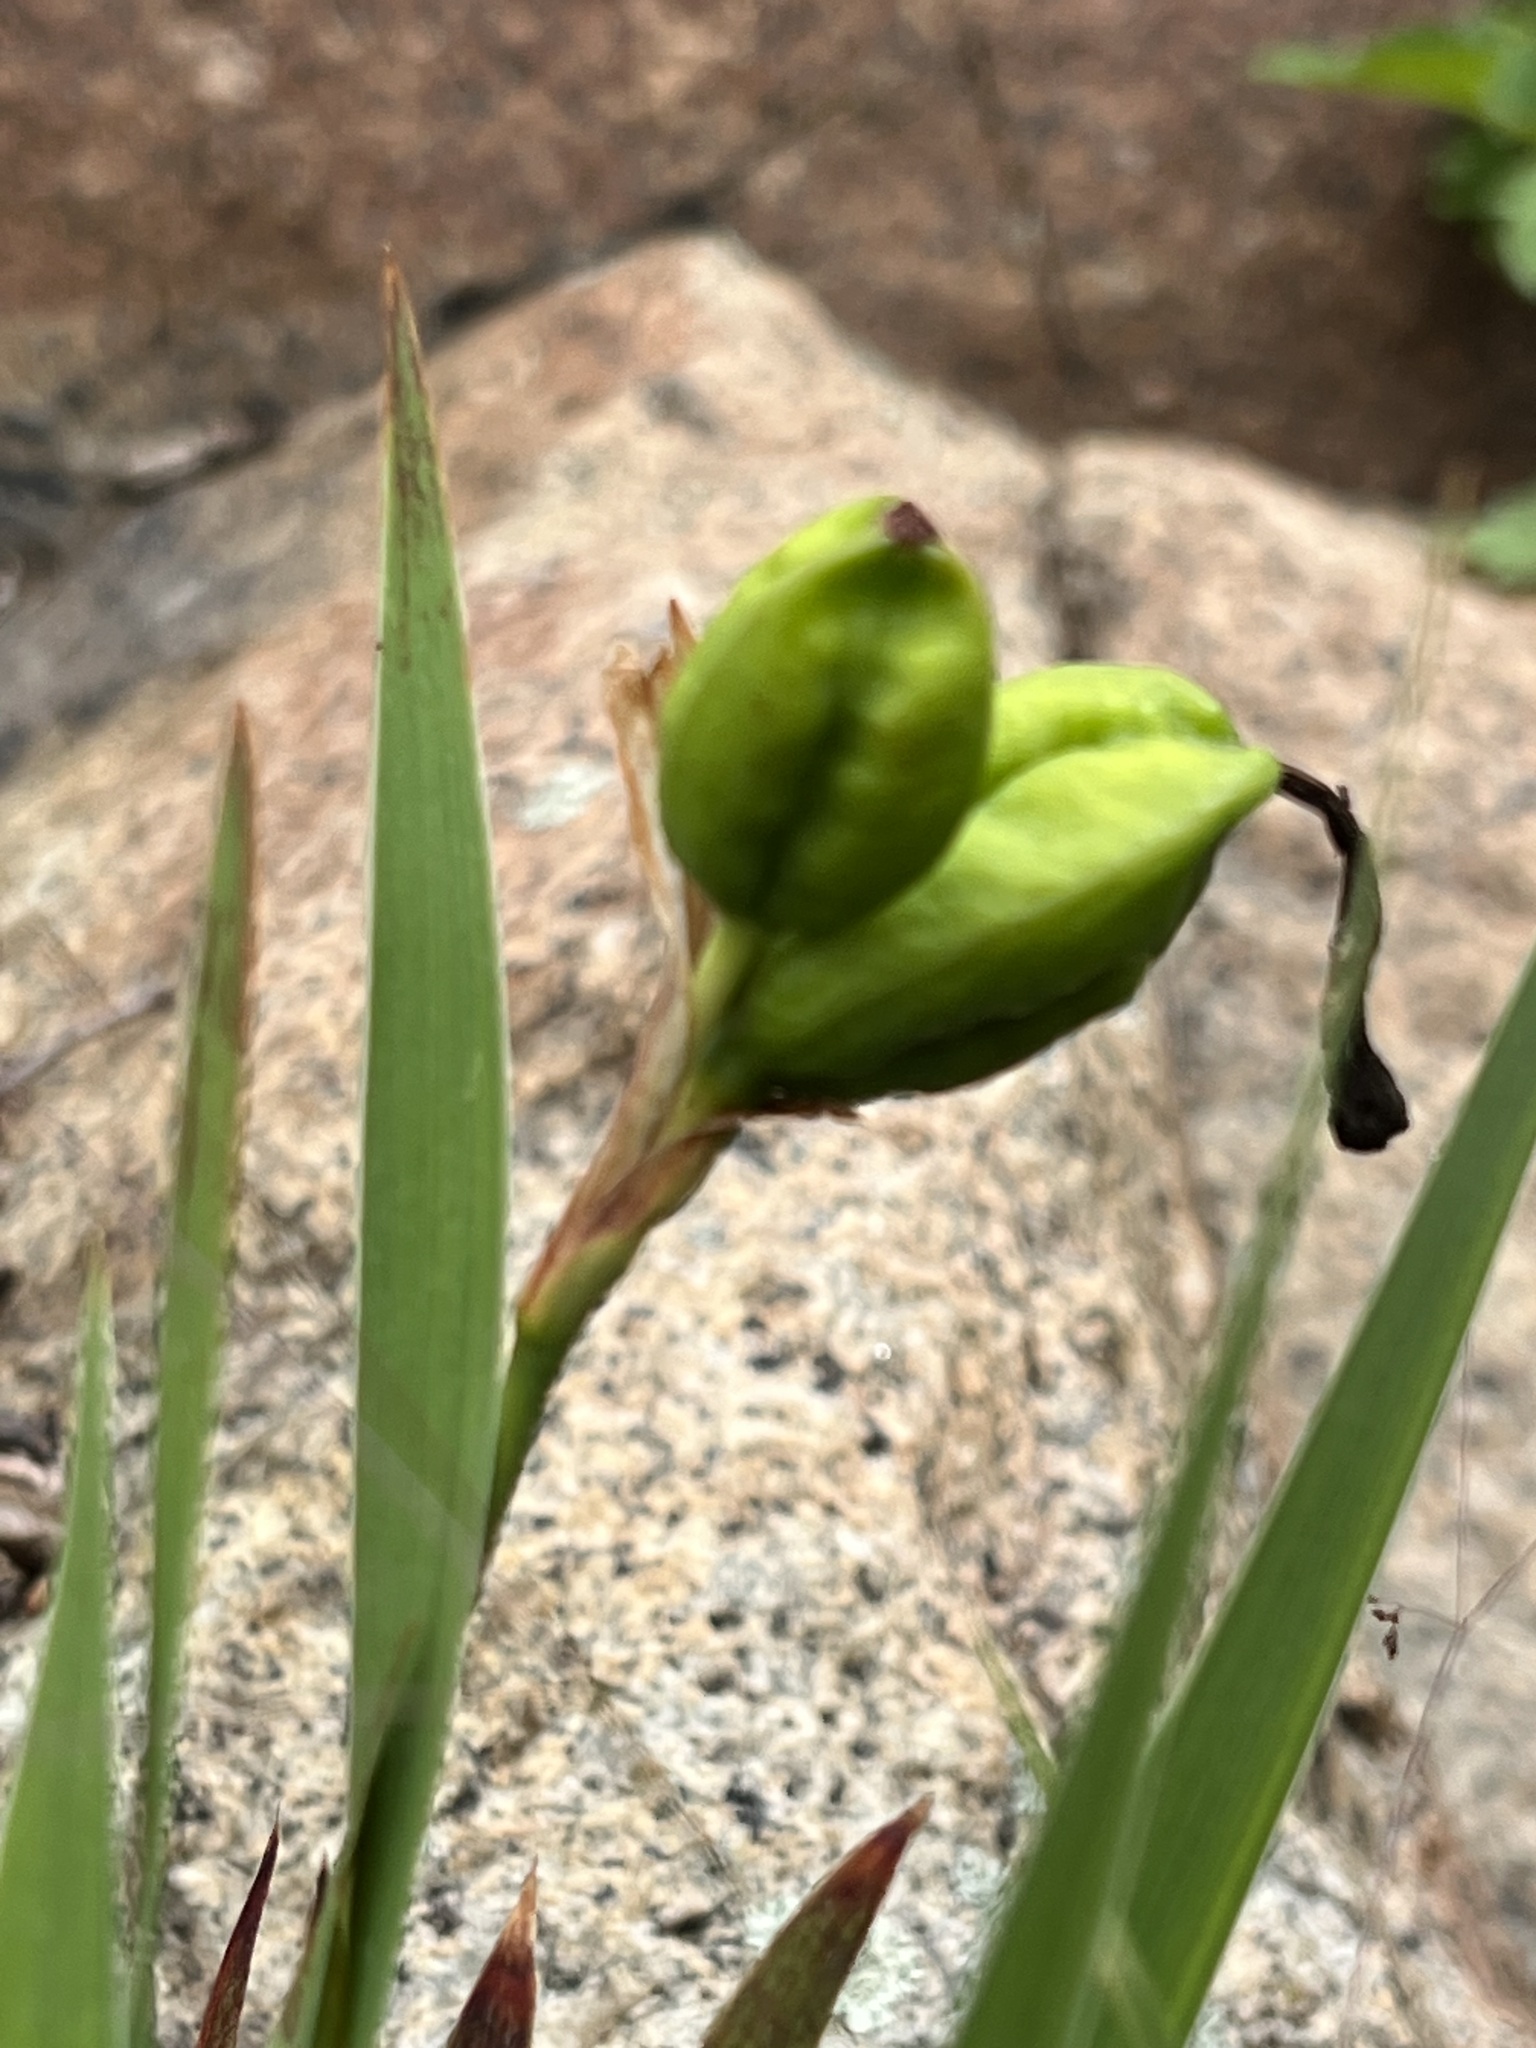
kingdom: Plantae
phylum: Tracheophyta
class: Liliopsida
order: Asparagales
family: Iridaceae
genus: Iris
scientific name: Iris hookeri
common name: Canada beach-head iris
